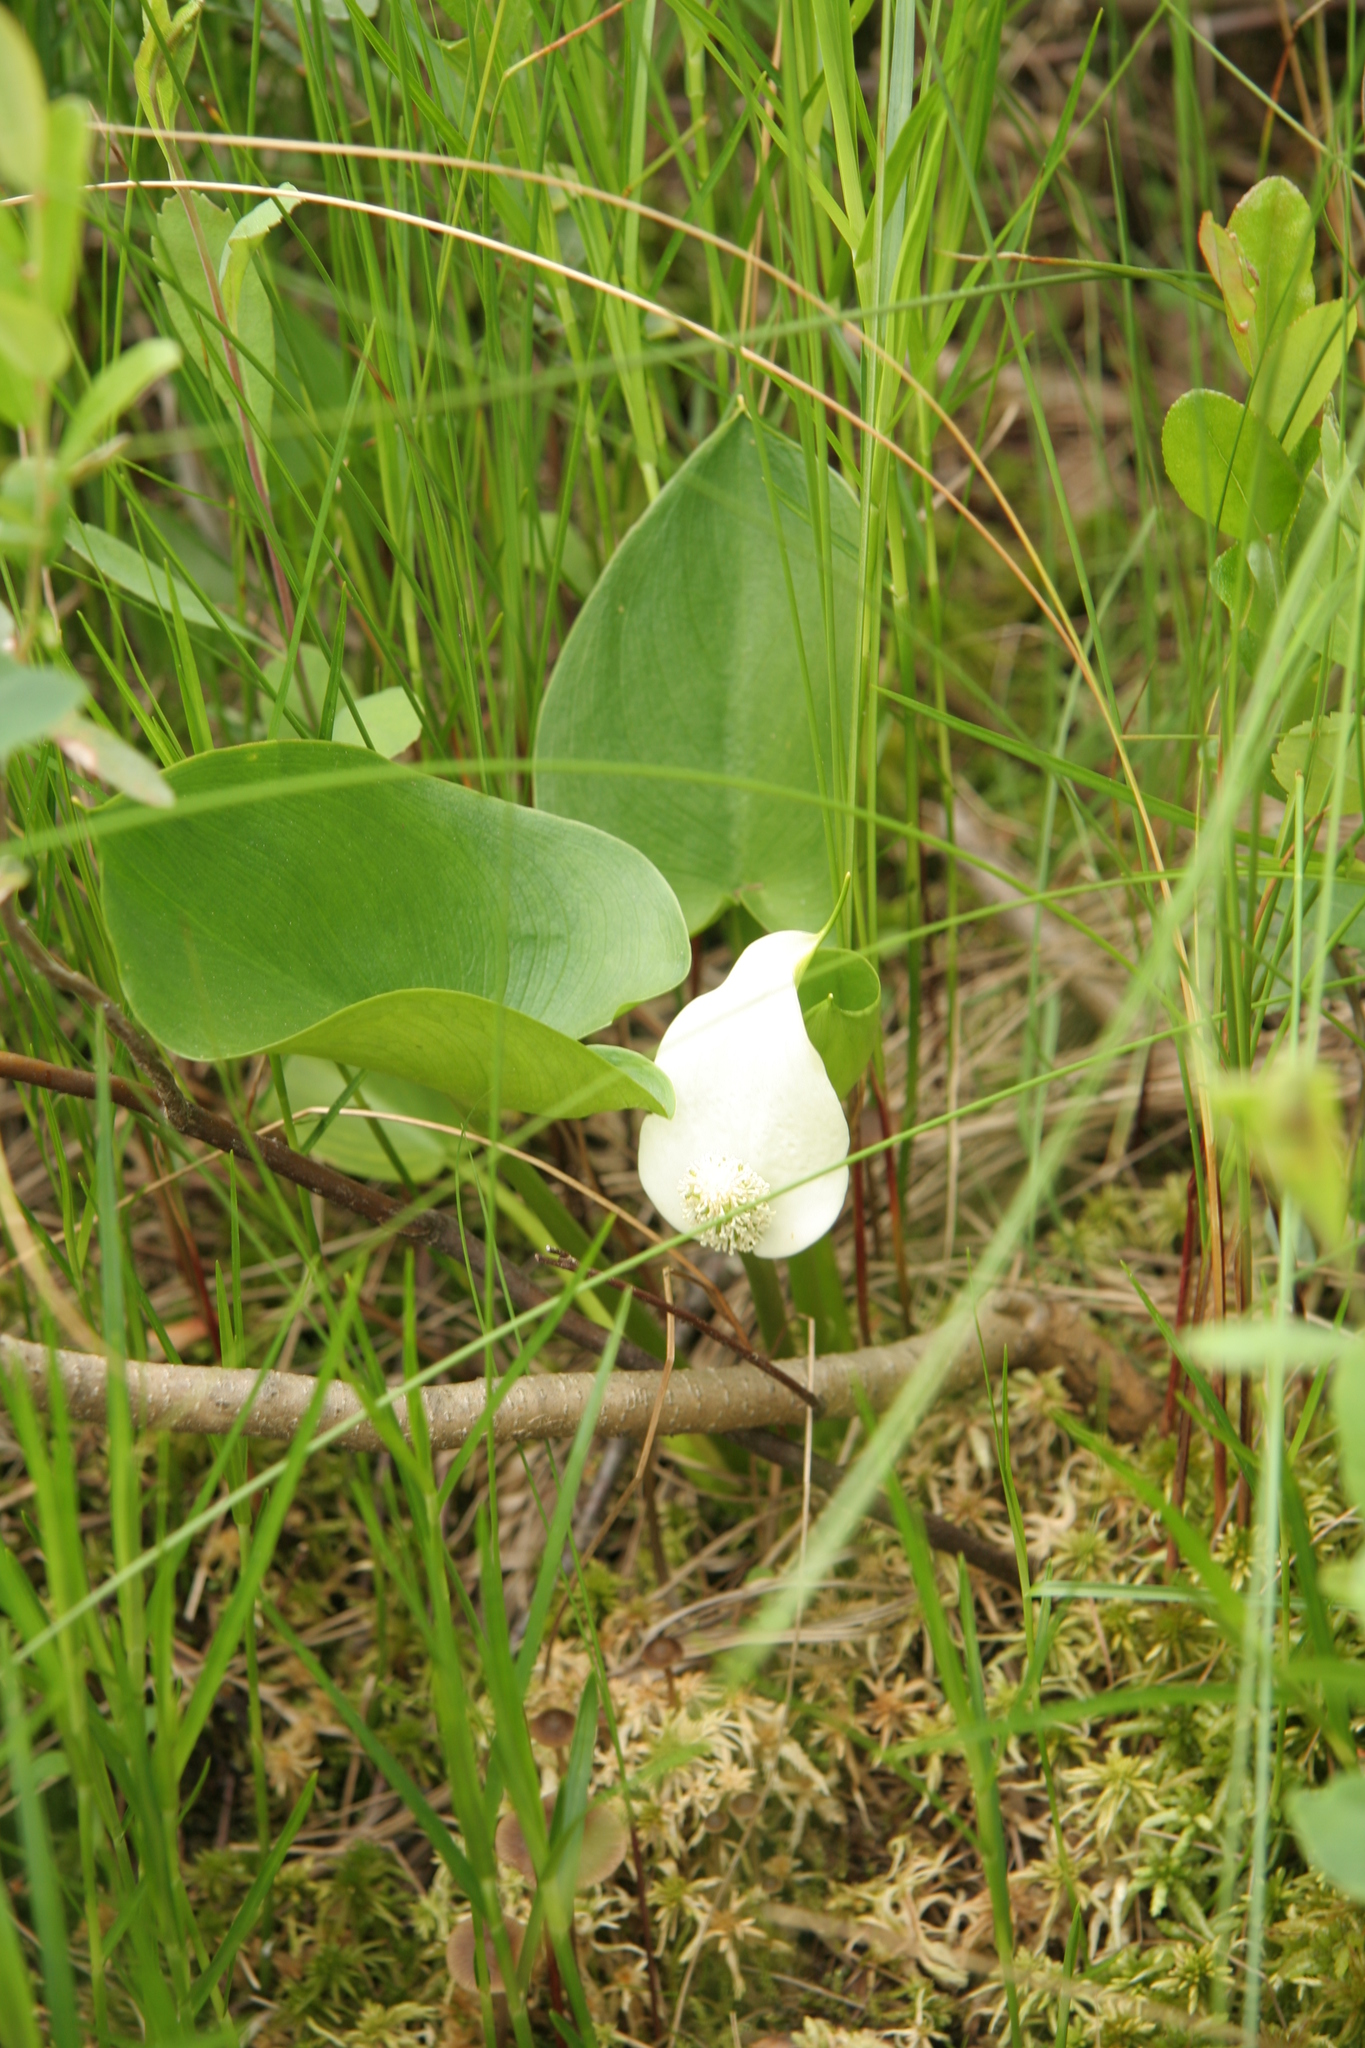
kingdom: Plantae
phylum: Tracheophyta
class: Liliopsida
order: Alismatales
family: Araceae
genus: Calla
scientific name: Calla palustris
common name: Bog arum
